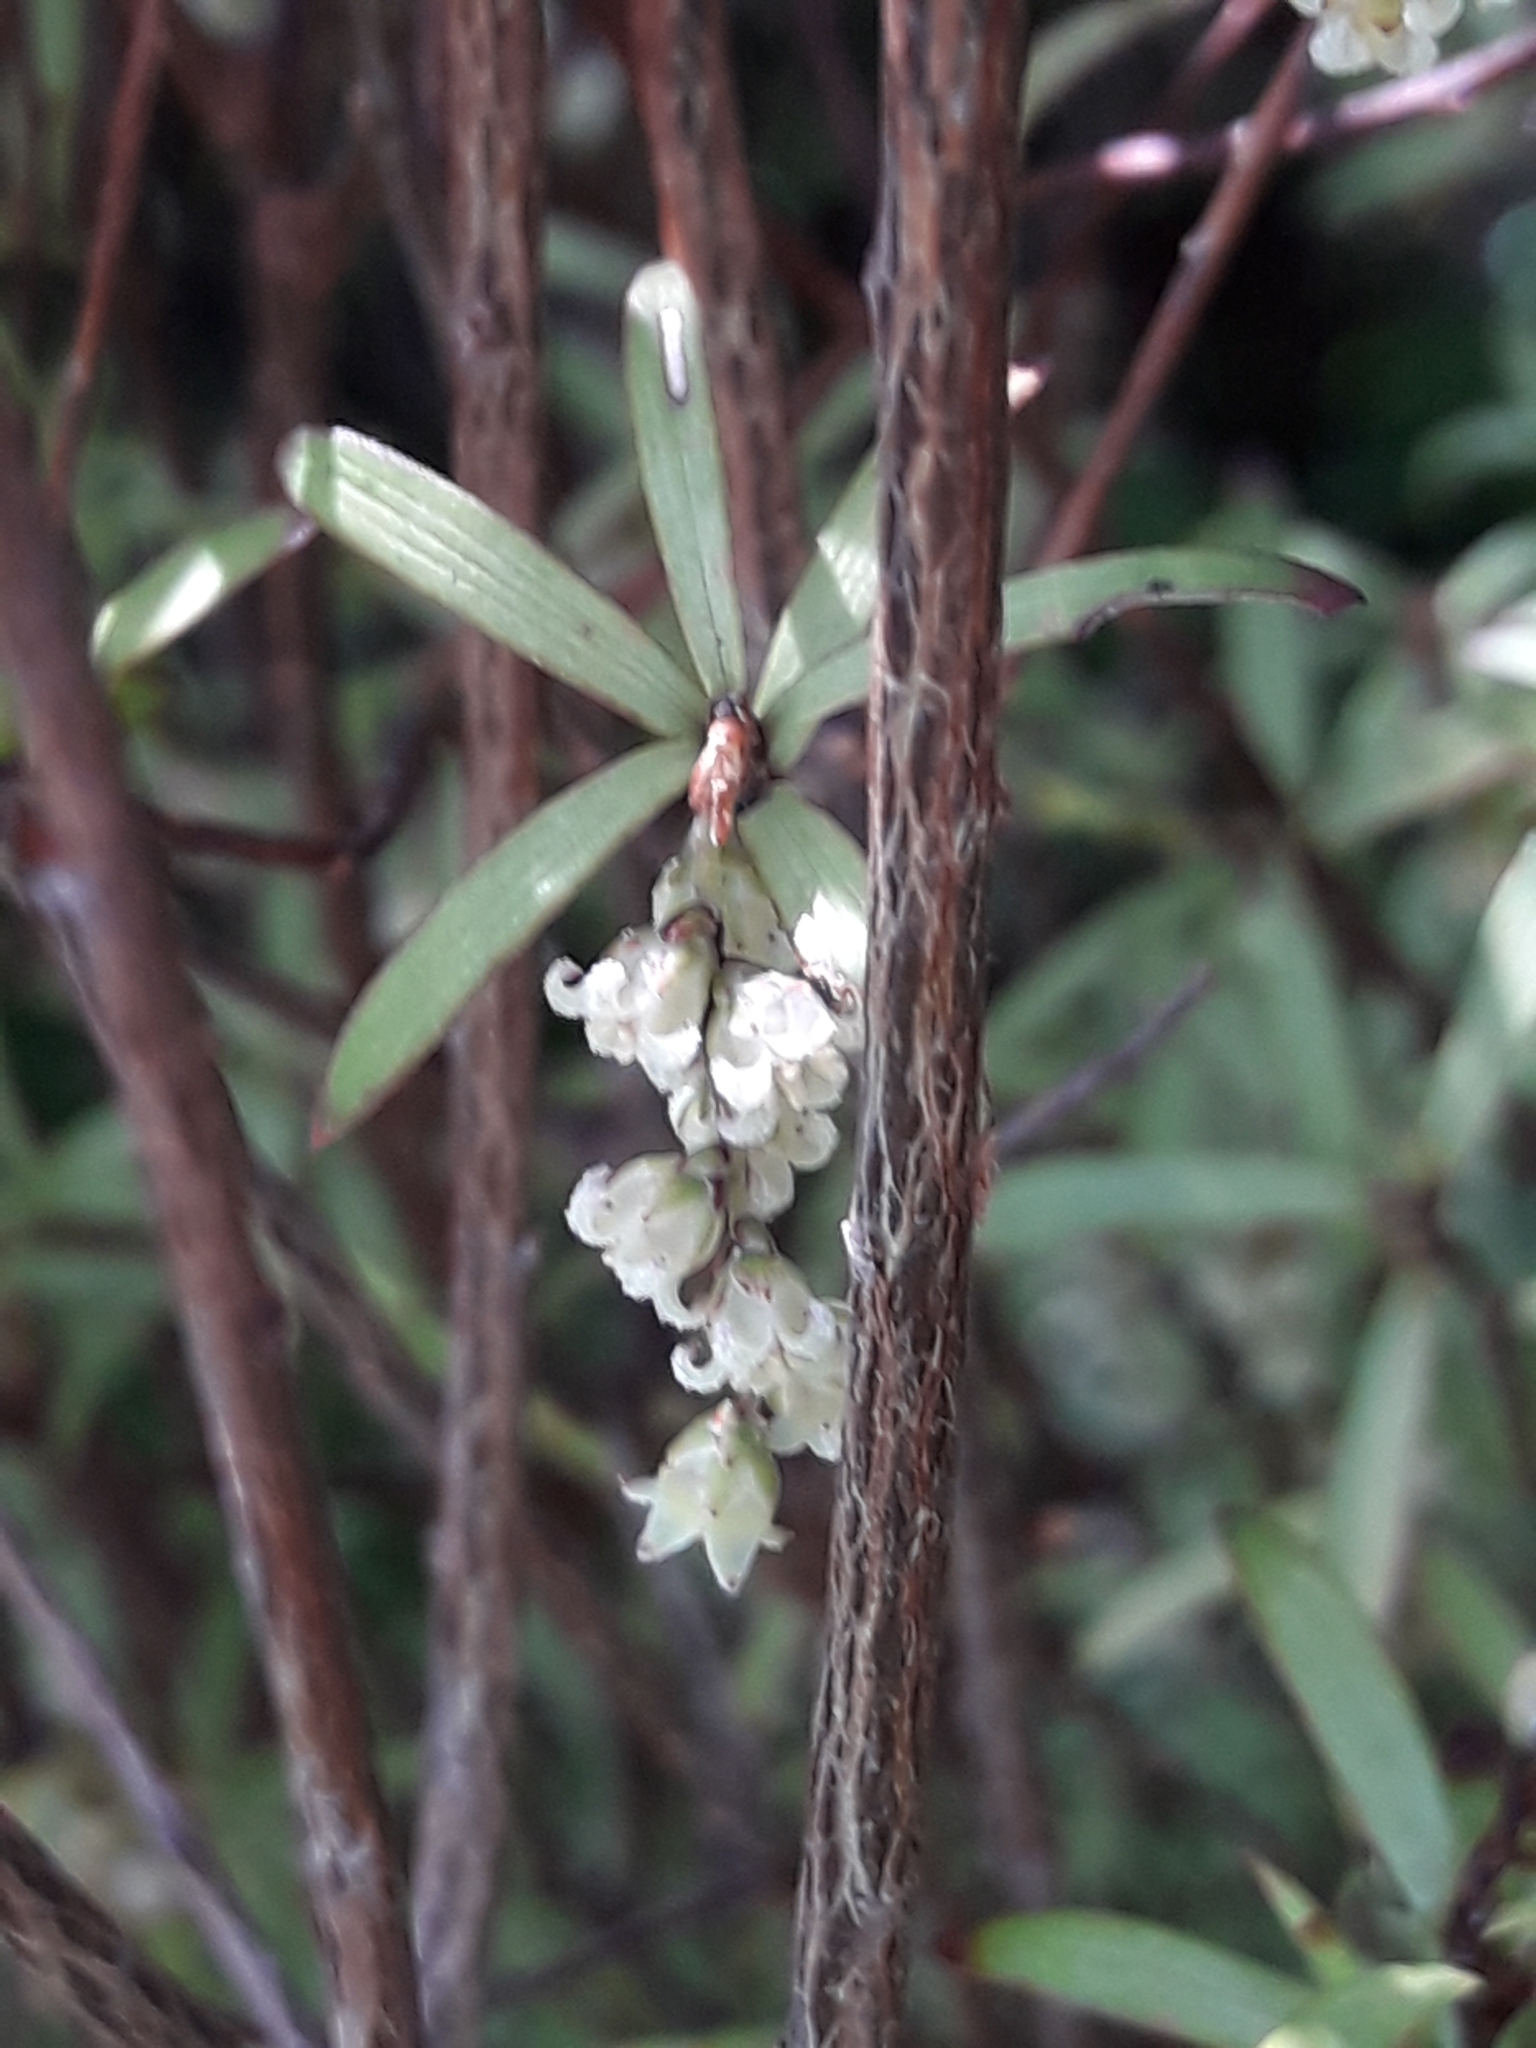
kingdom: Plantae
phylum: Tracheophyta
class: Magnoliopsida
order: Ericales
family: Ericaceae
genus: Leucopogon
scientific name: Leucopogon fasciculatus
